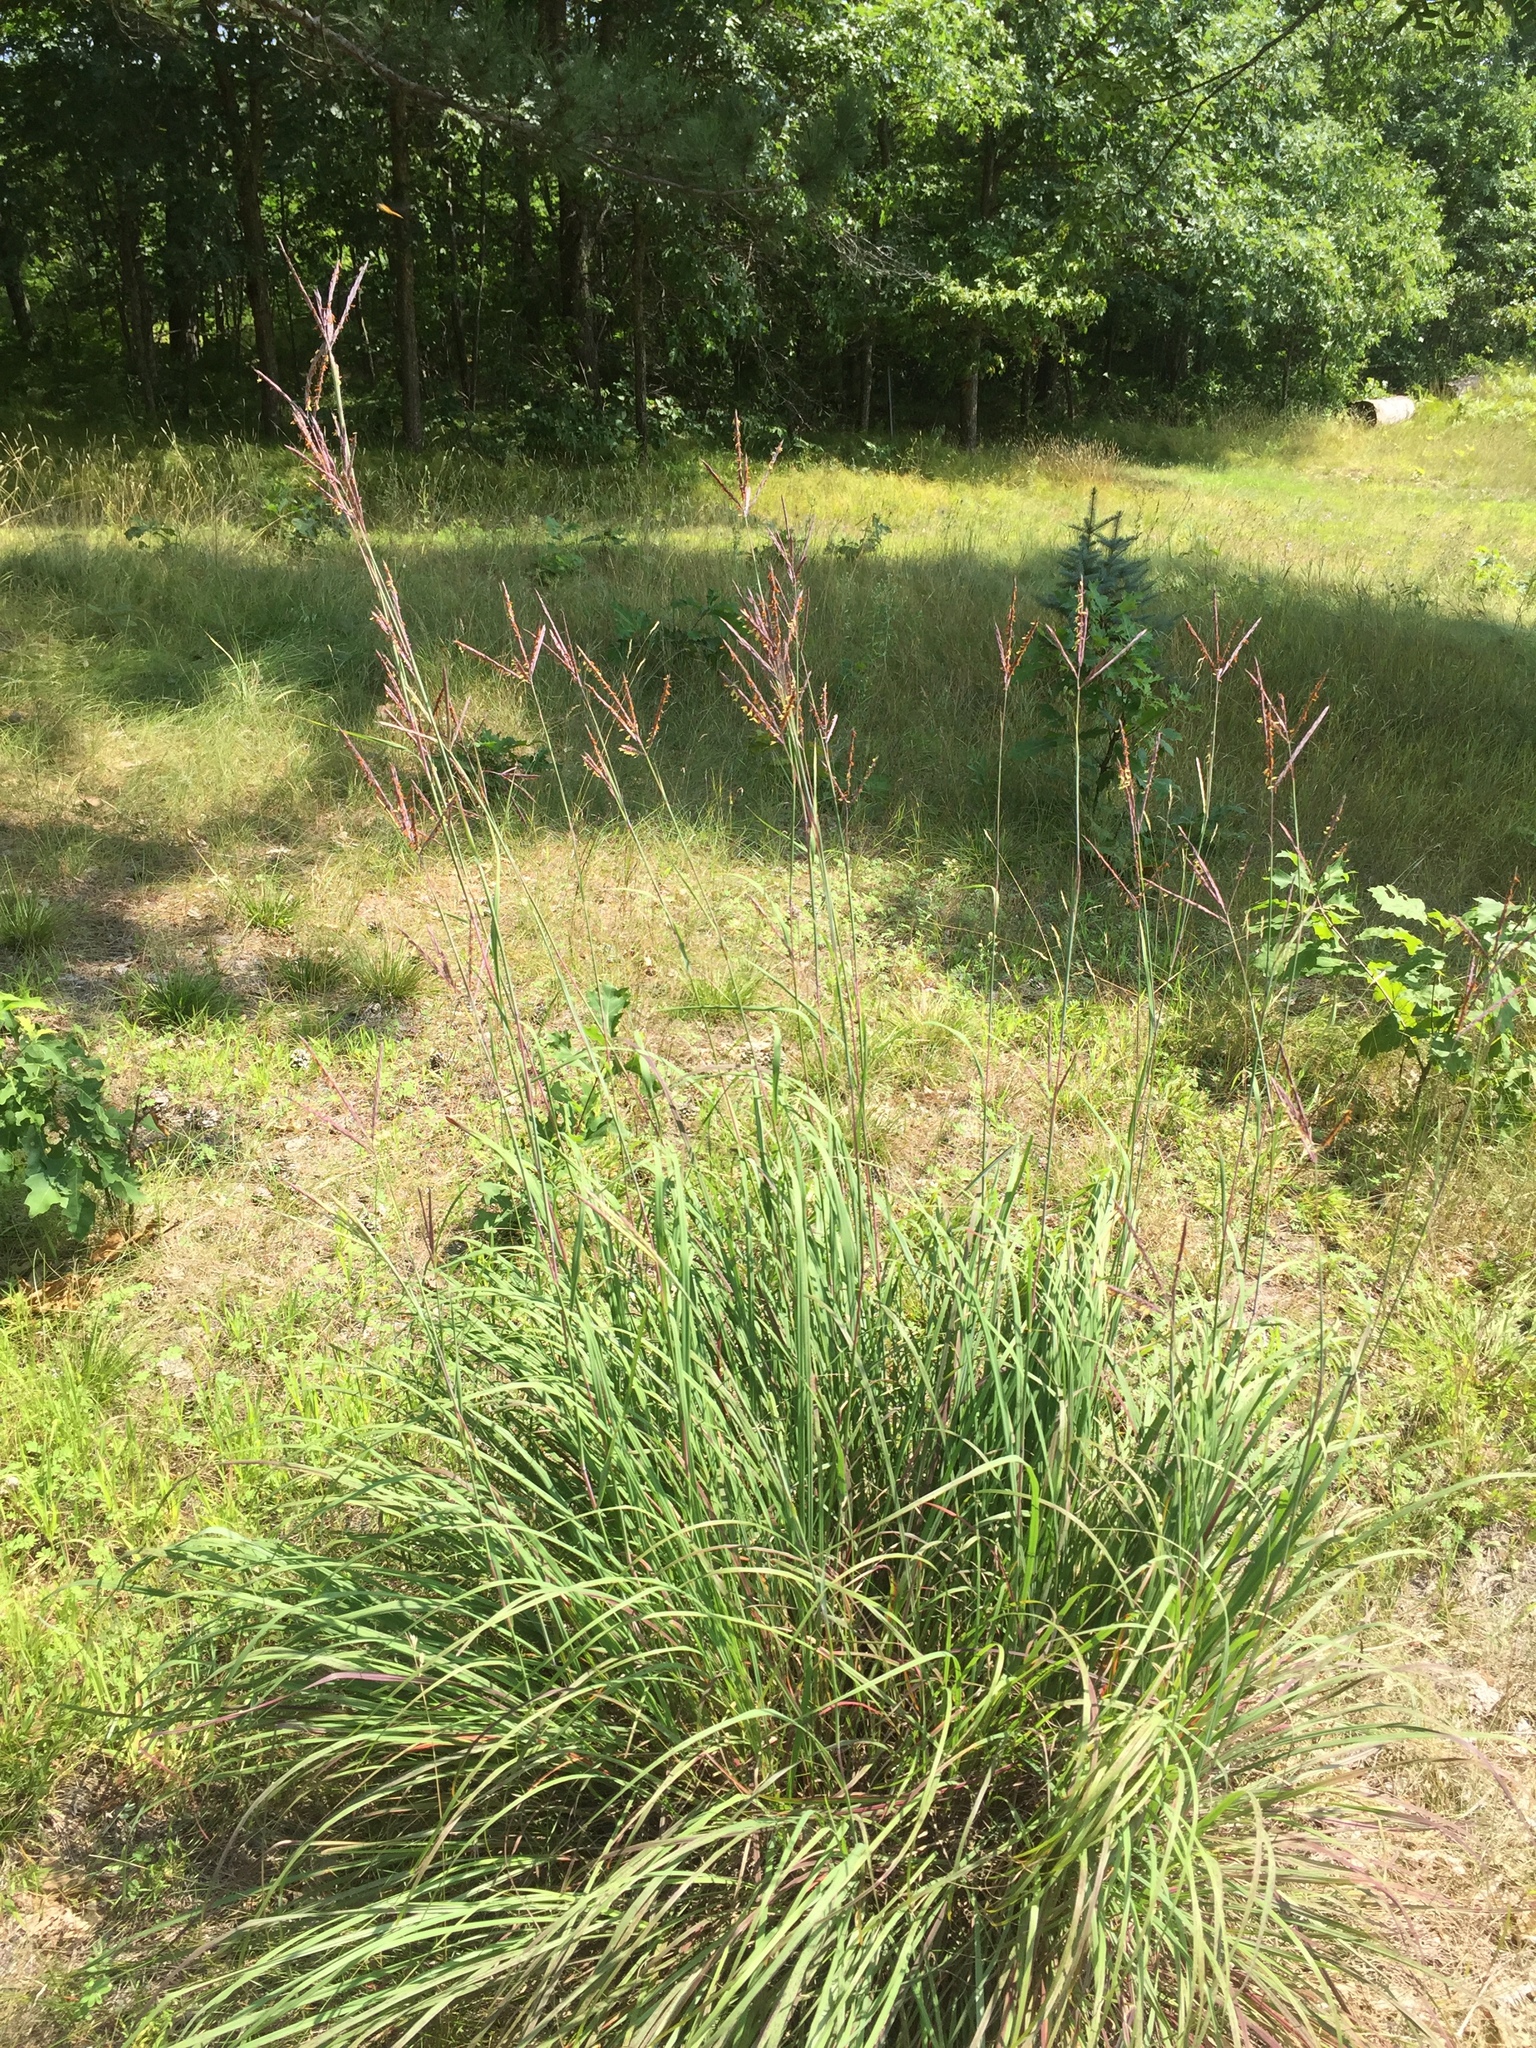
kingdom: Plantae
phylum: Tracheophyta
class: Liliopsida
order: Poales
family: Poaceae
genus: Andropogon
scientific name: Andropogon gerardi
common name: Big bluestem
